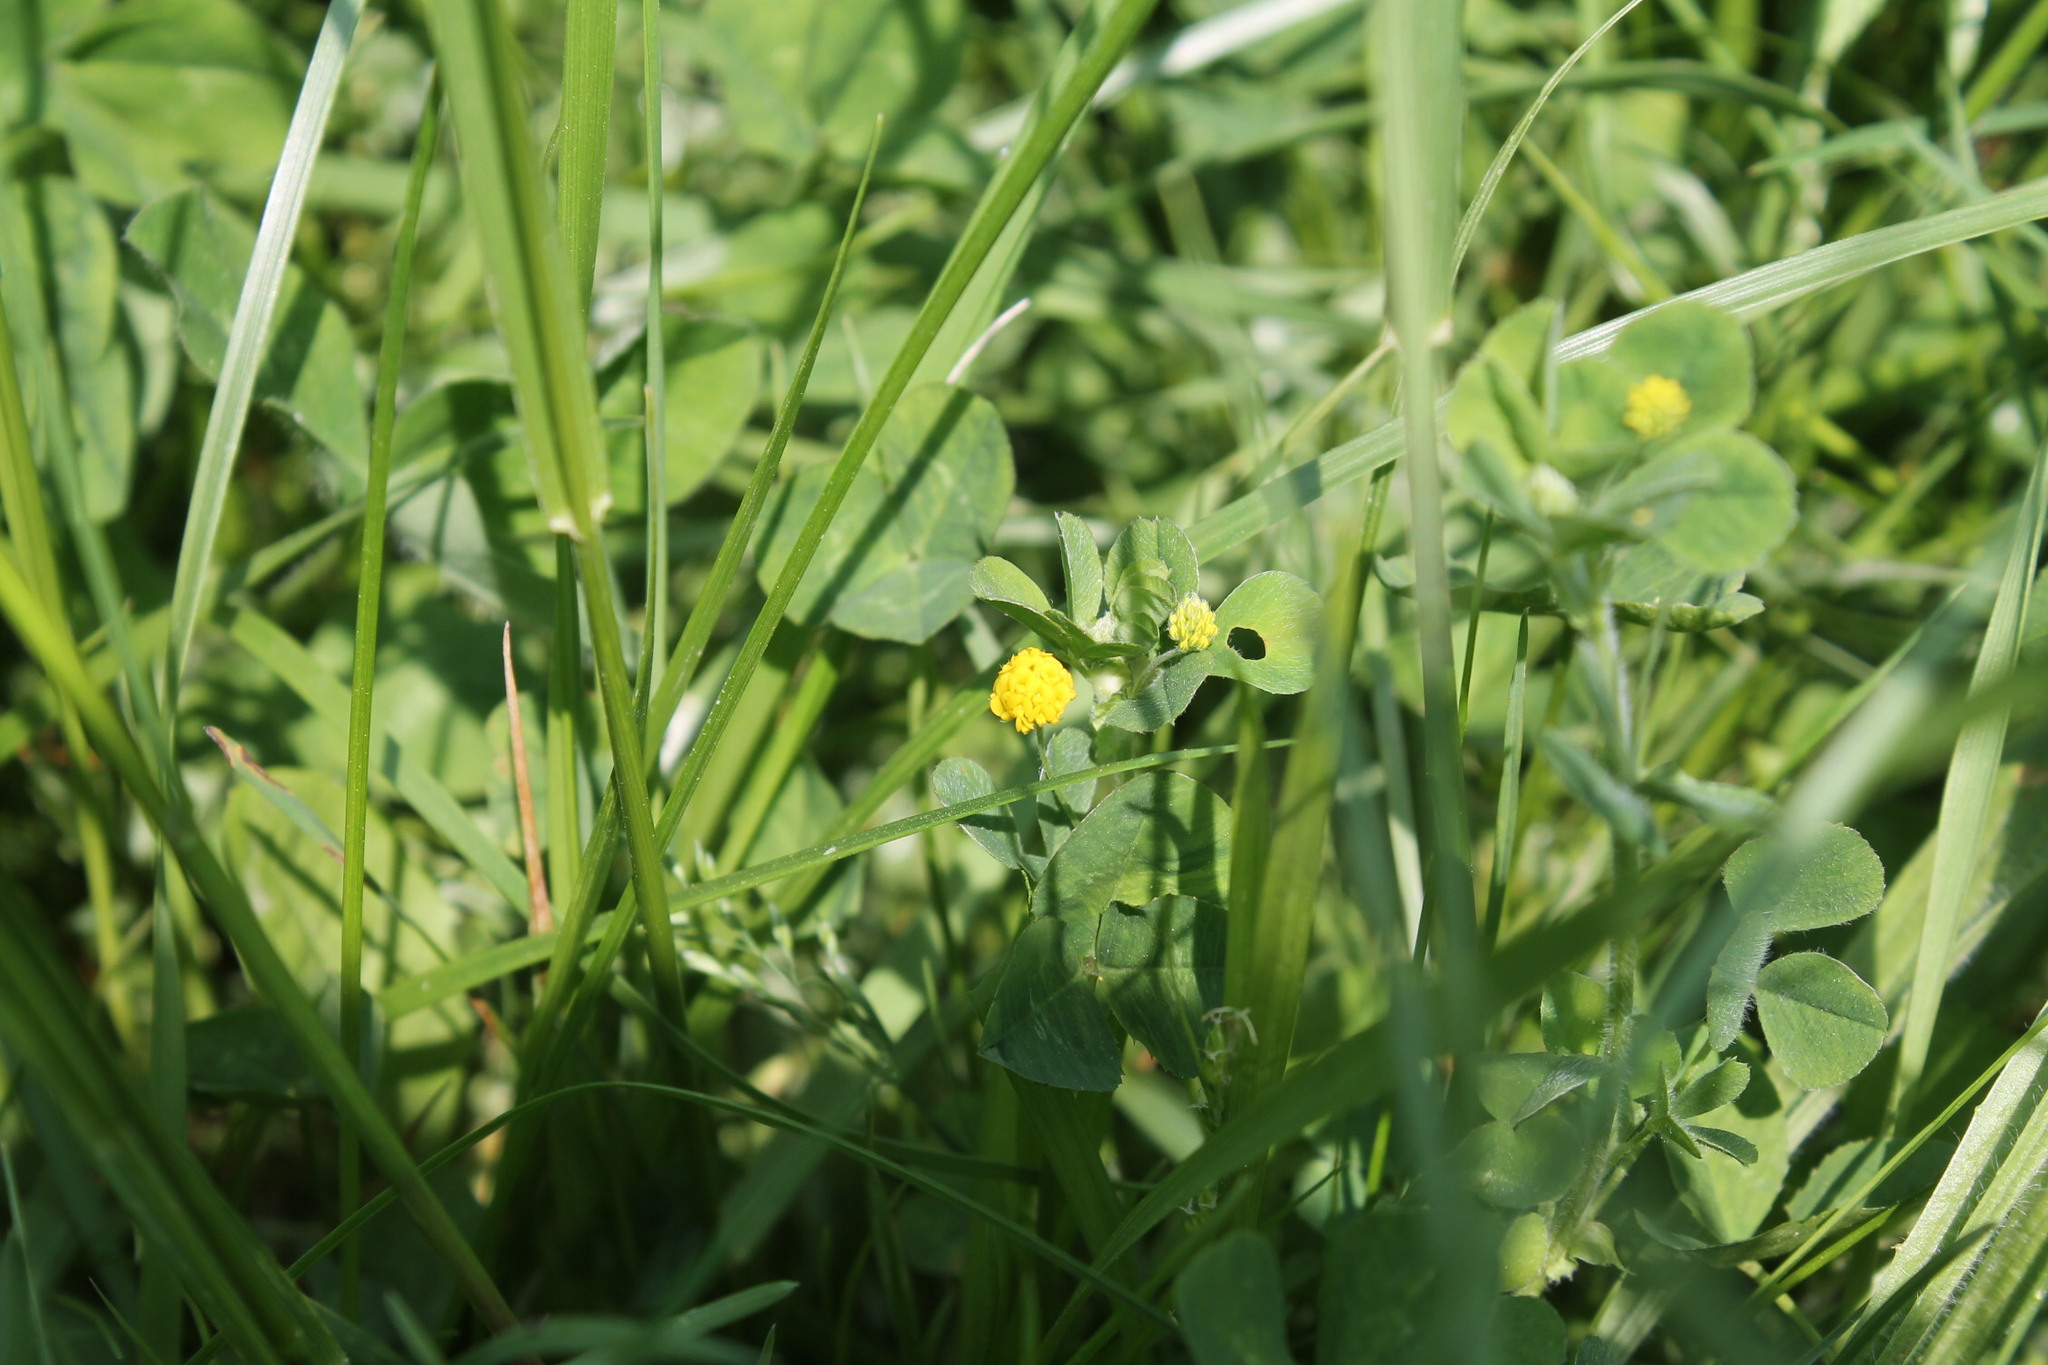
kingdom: Plantae
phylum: Tracheophyta
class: Magnoliopsida
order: Fabales
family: Fabaceae
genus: Medicago
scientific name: Medicago lupulina
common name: Black medick
